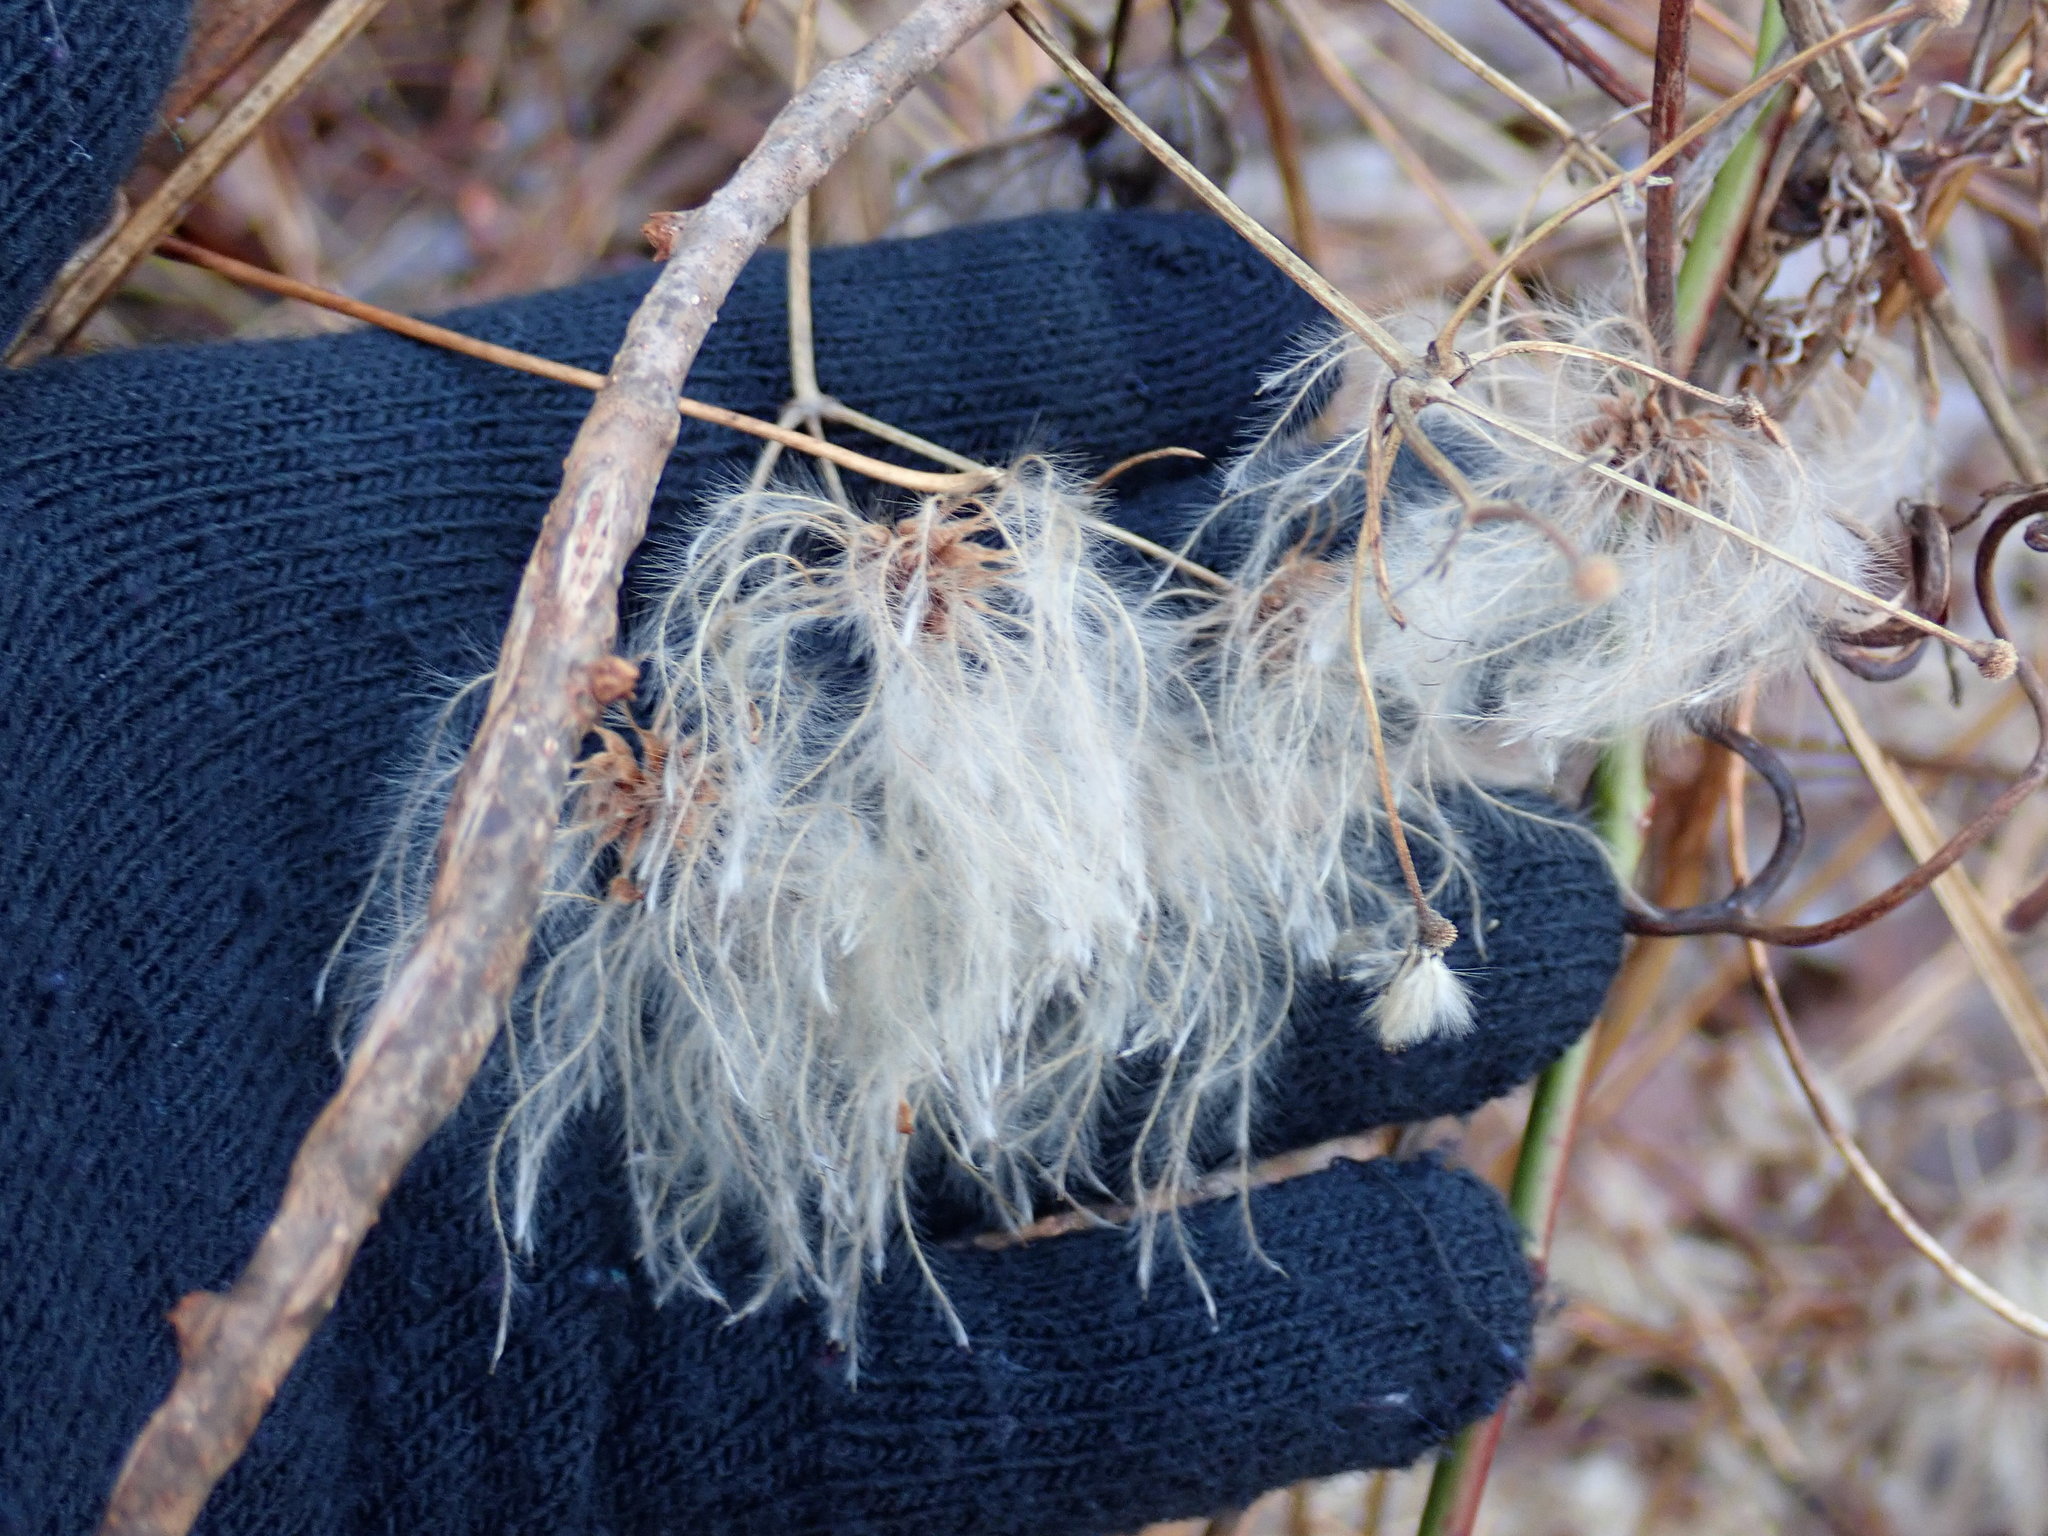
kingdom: Plantae
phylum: Tracheophyta
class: Magnoliopsida
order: Ranunculales
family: Ranunculaceae
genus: Clematis
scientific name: Clematis virginiana
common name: Virgin's-bower
